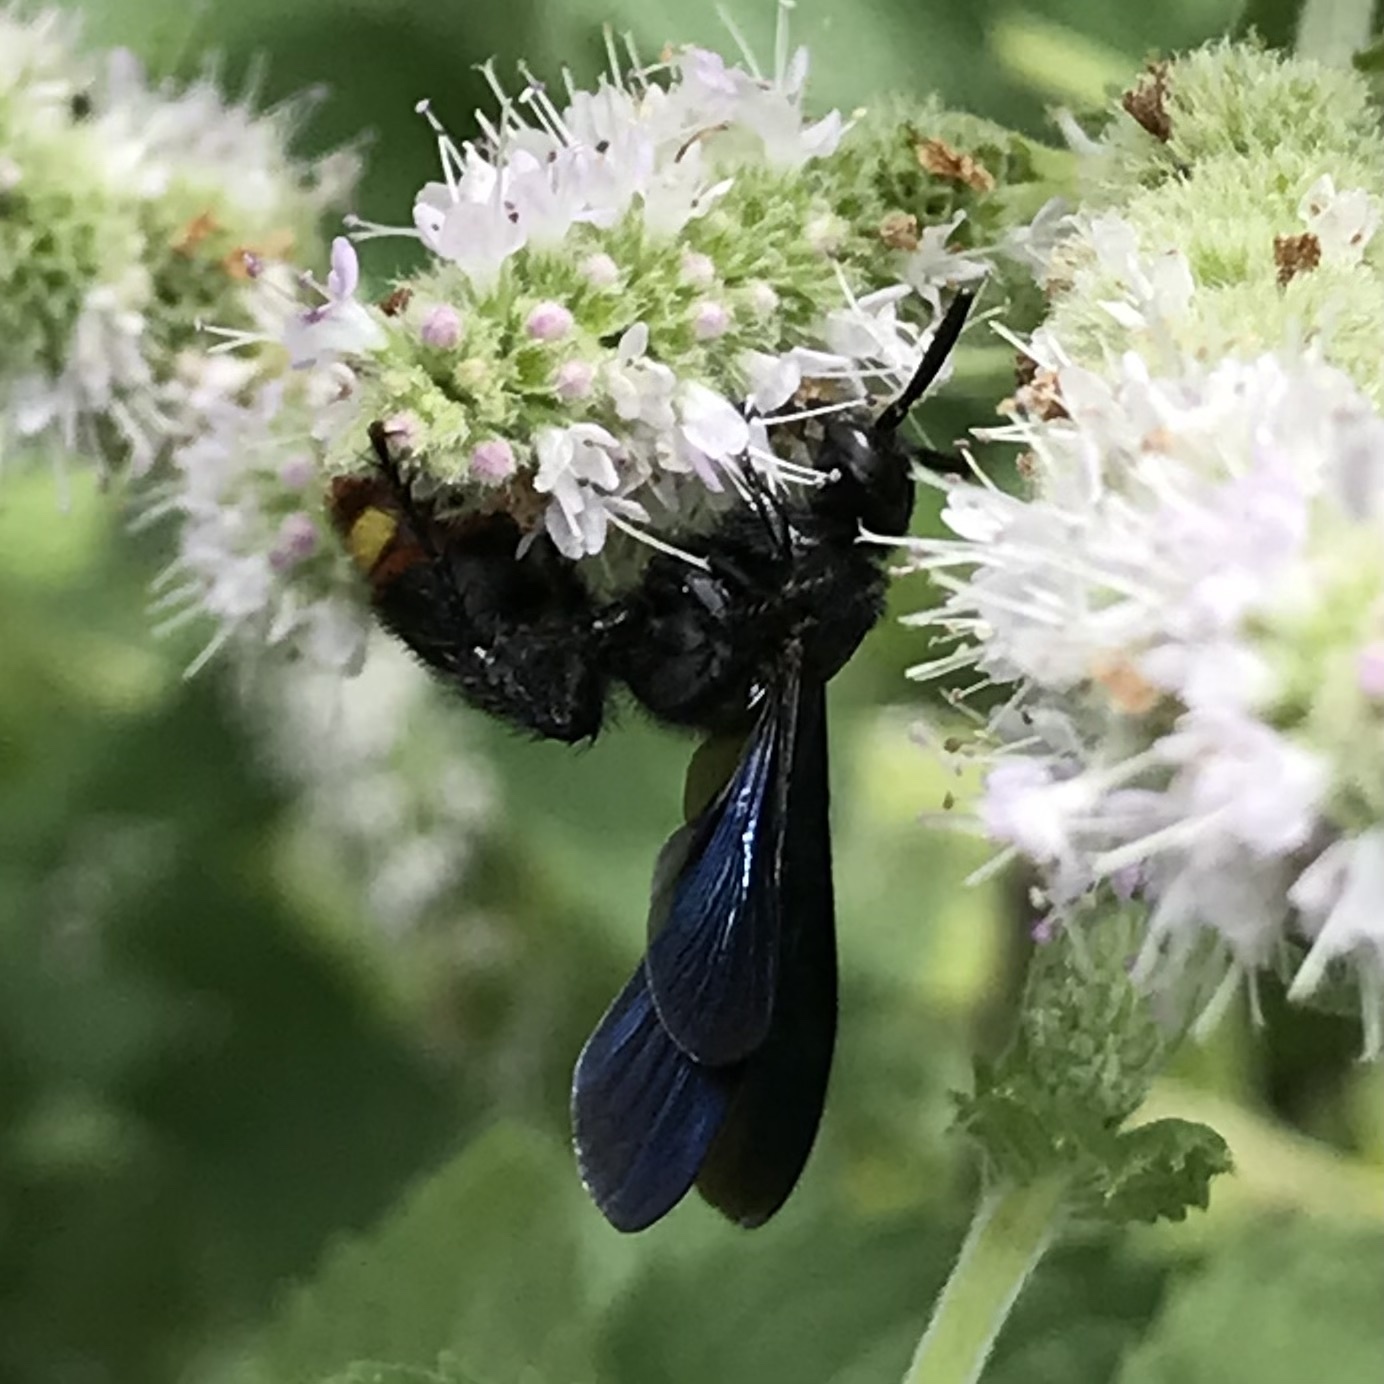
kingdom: Animalia
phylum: Arthropoda
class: Insecta
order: Hymenoptera
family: Scoliidae
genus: Scolia
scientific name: Scolia dubia
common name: Blue-winged scoliid wasp
